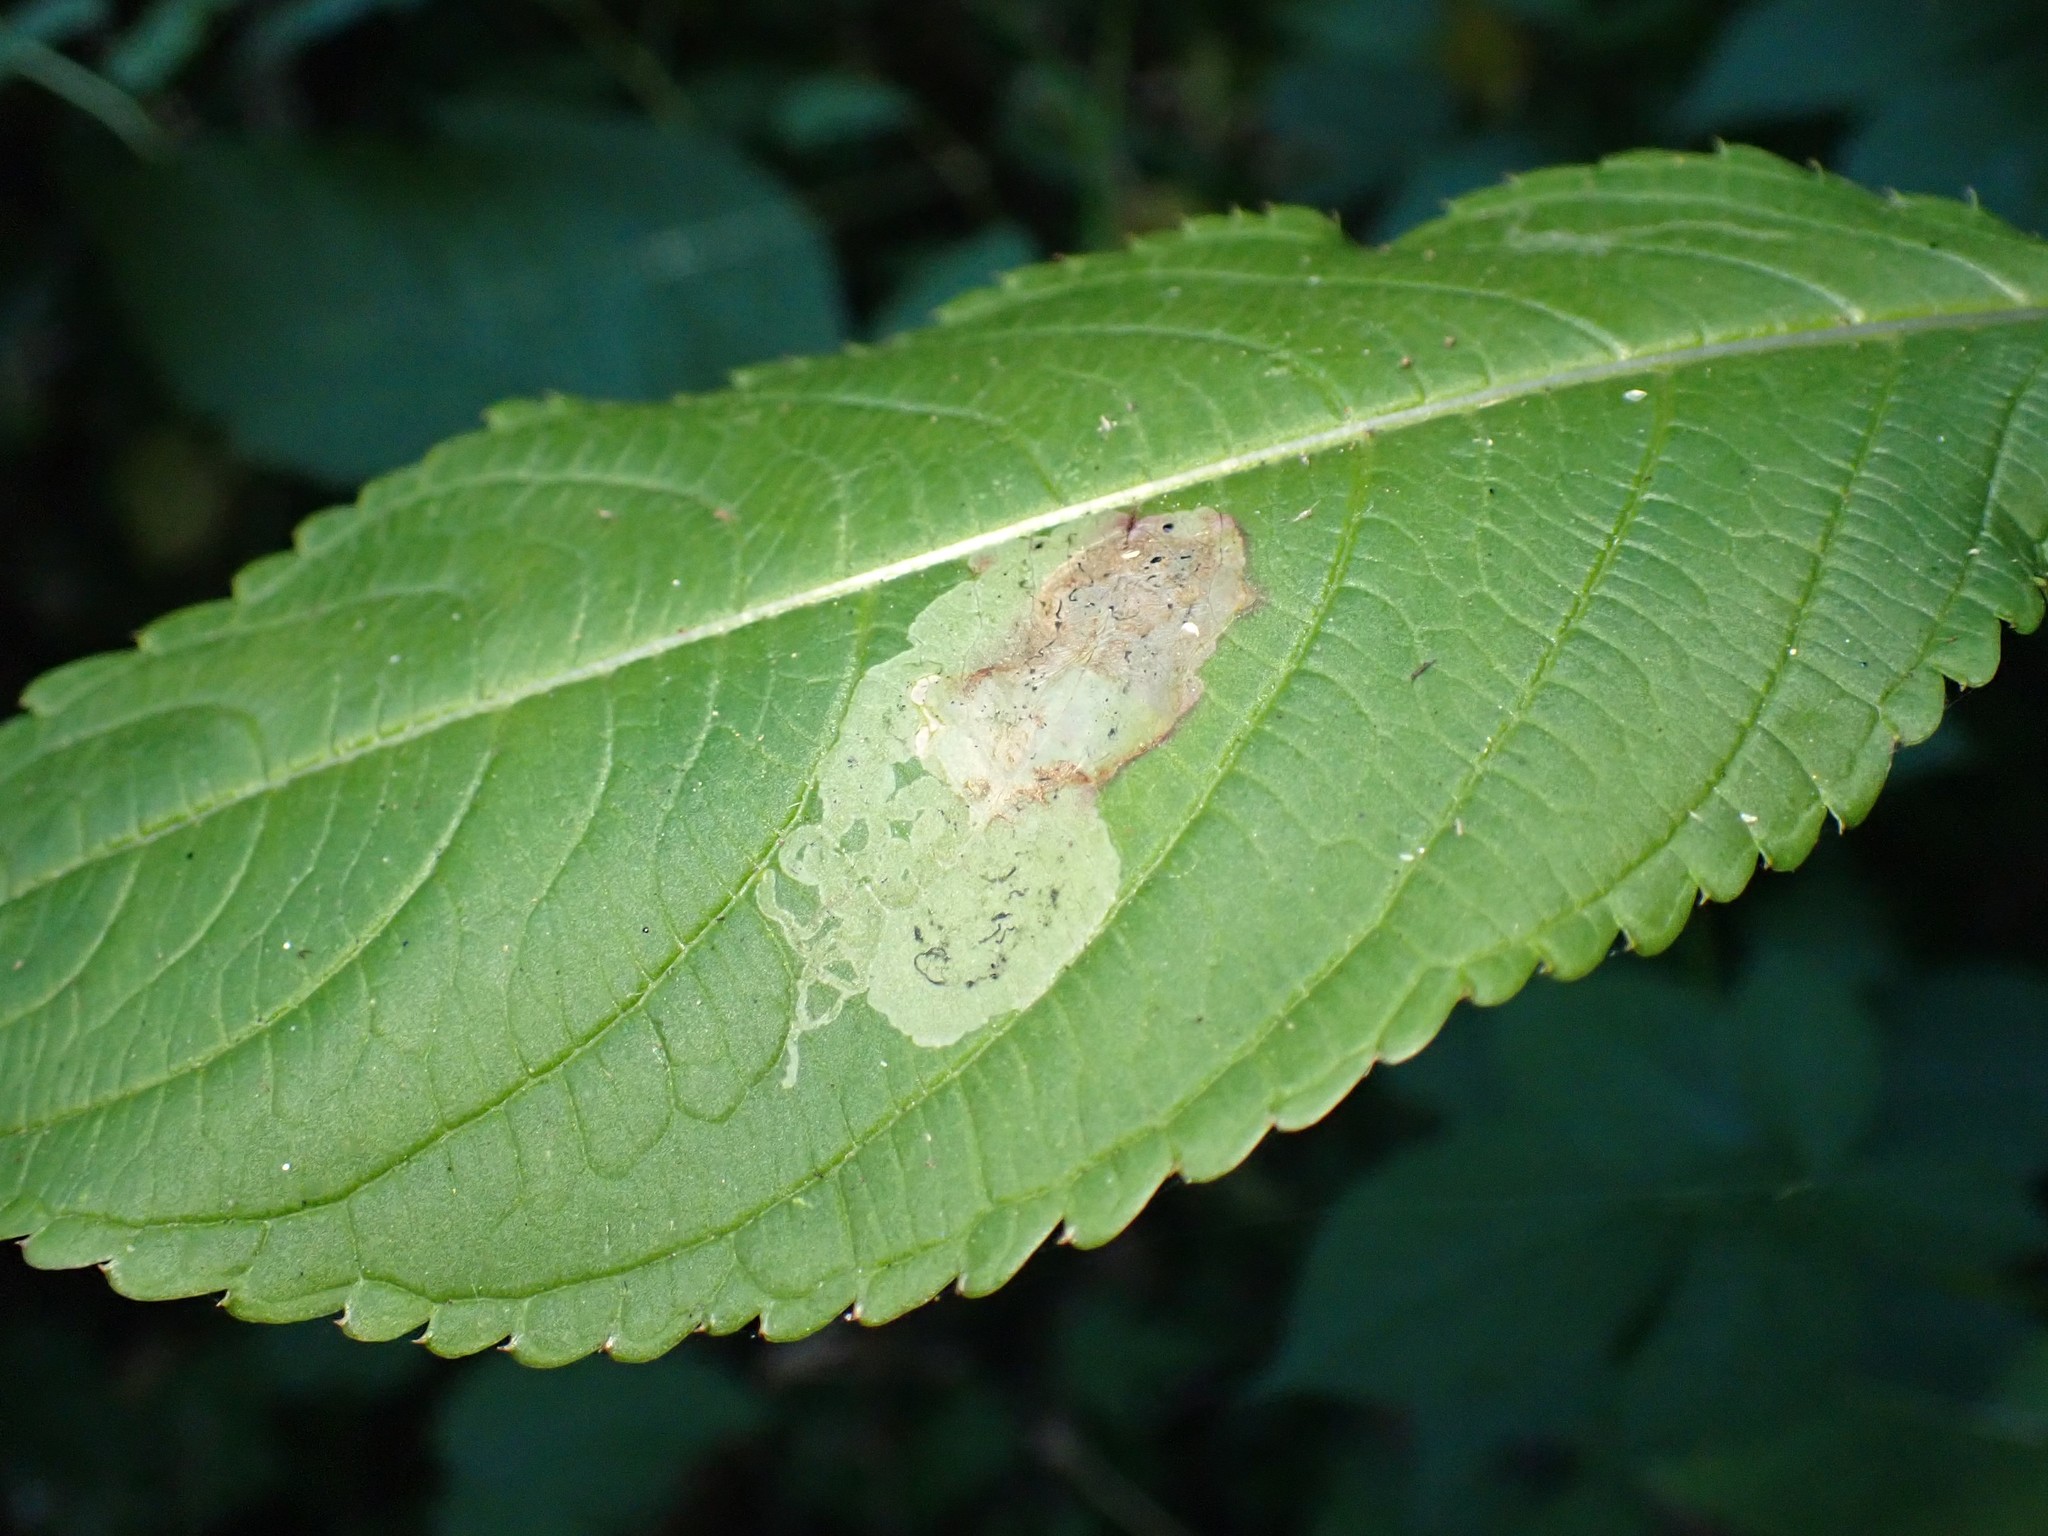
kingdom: Animalia
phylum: Arthropoda
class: Insecta
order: Diptera
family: Agromyzidae
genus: Phytoliriomyza
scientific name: Phytoliriomyza melampyga
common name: Jewelweed leaf-miner fly
